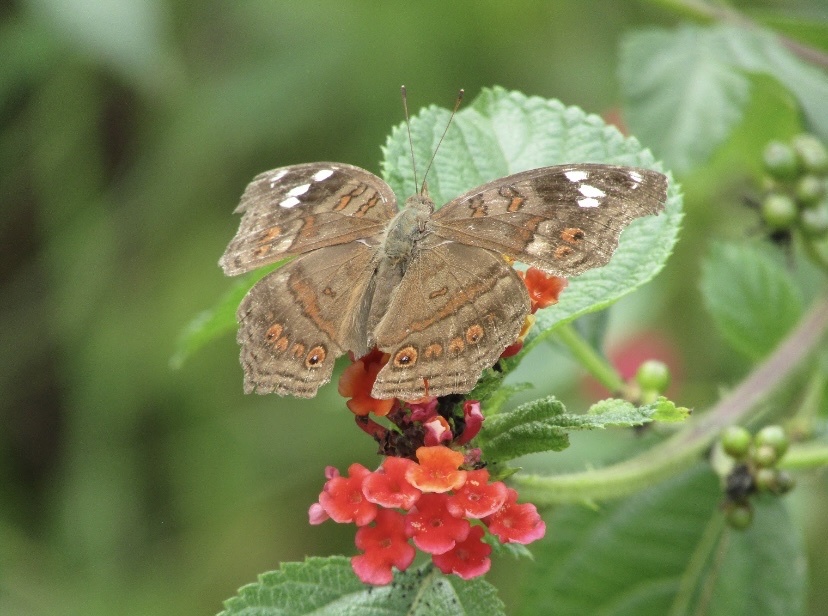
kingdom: Animalia
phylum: Arthropoda
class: Insecta
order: Lepidoptera
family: Nymphalidae
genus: Junonia
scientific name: Junonia natalica
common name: Brown pansy
